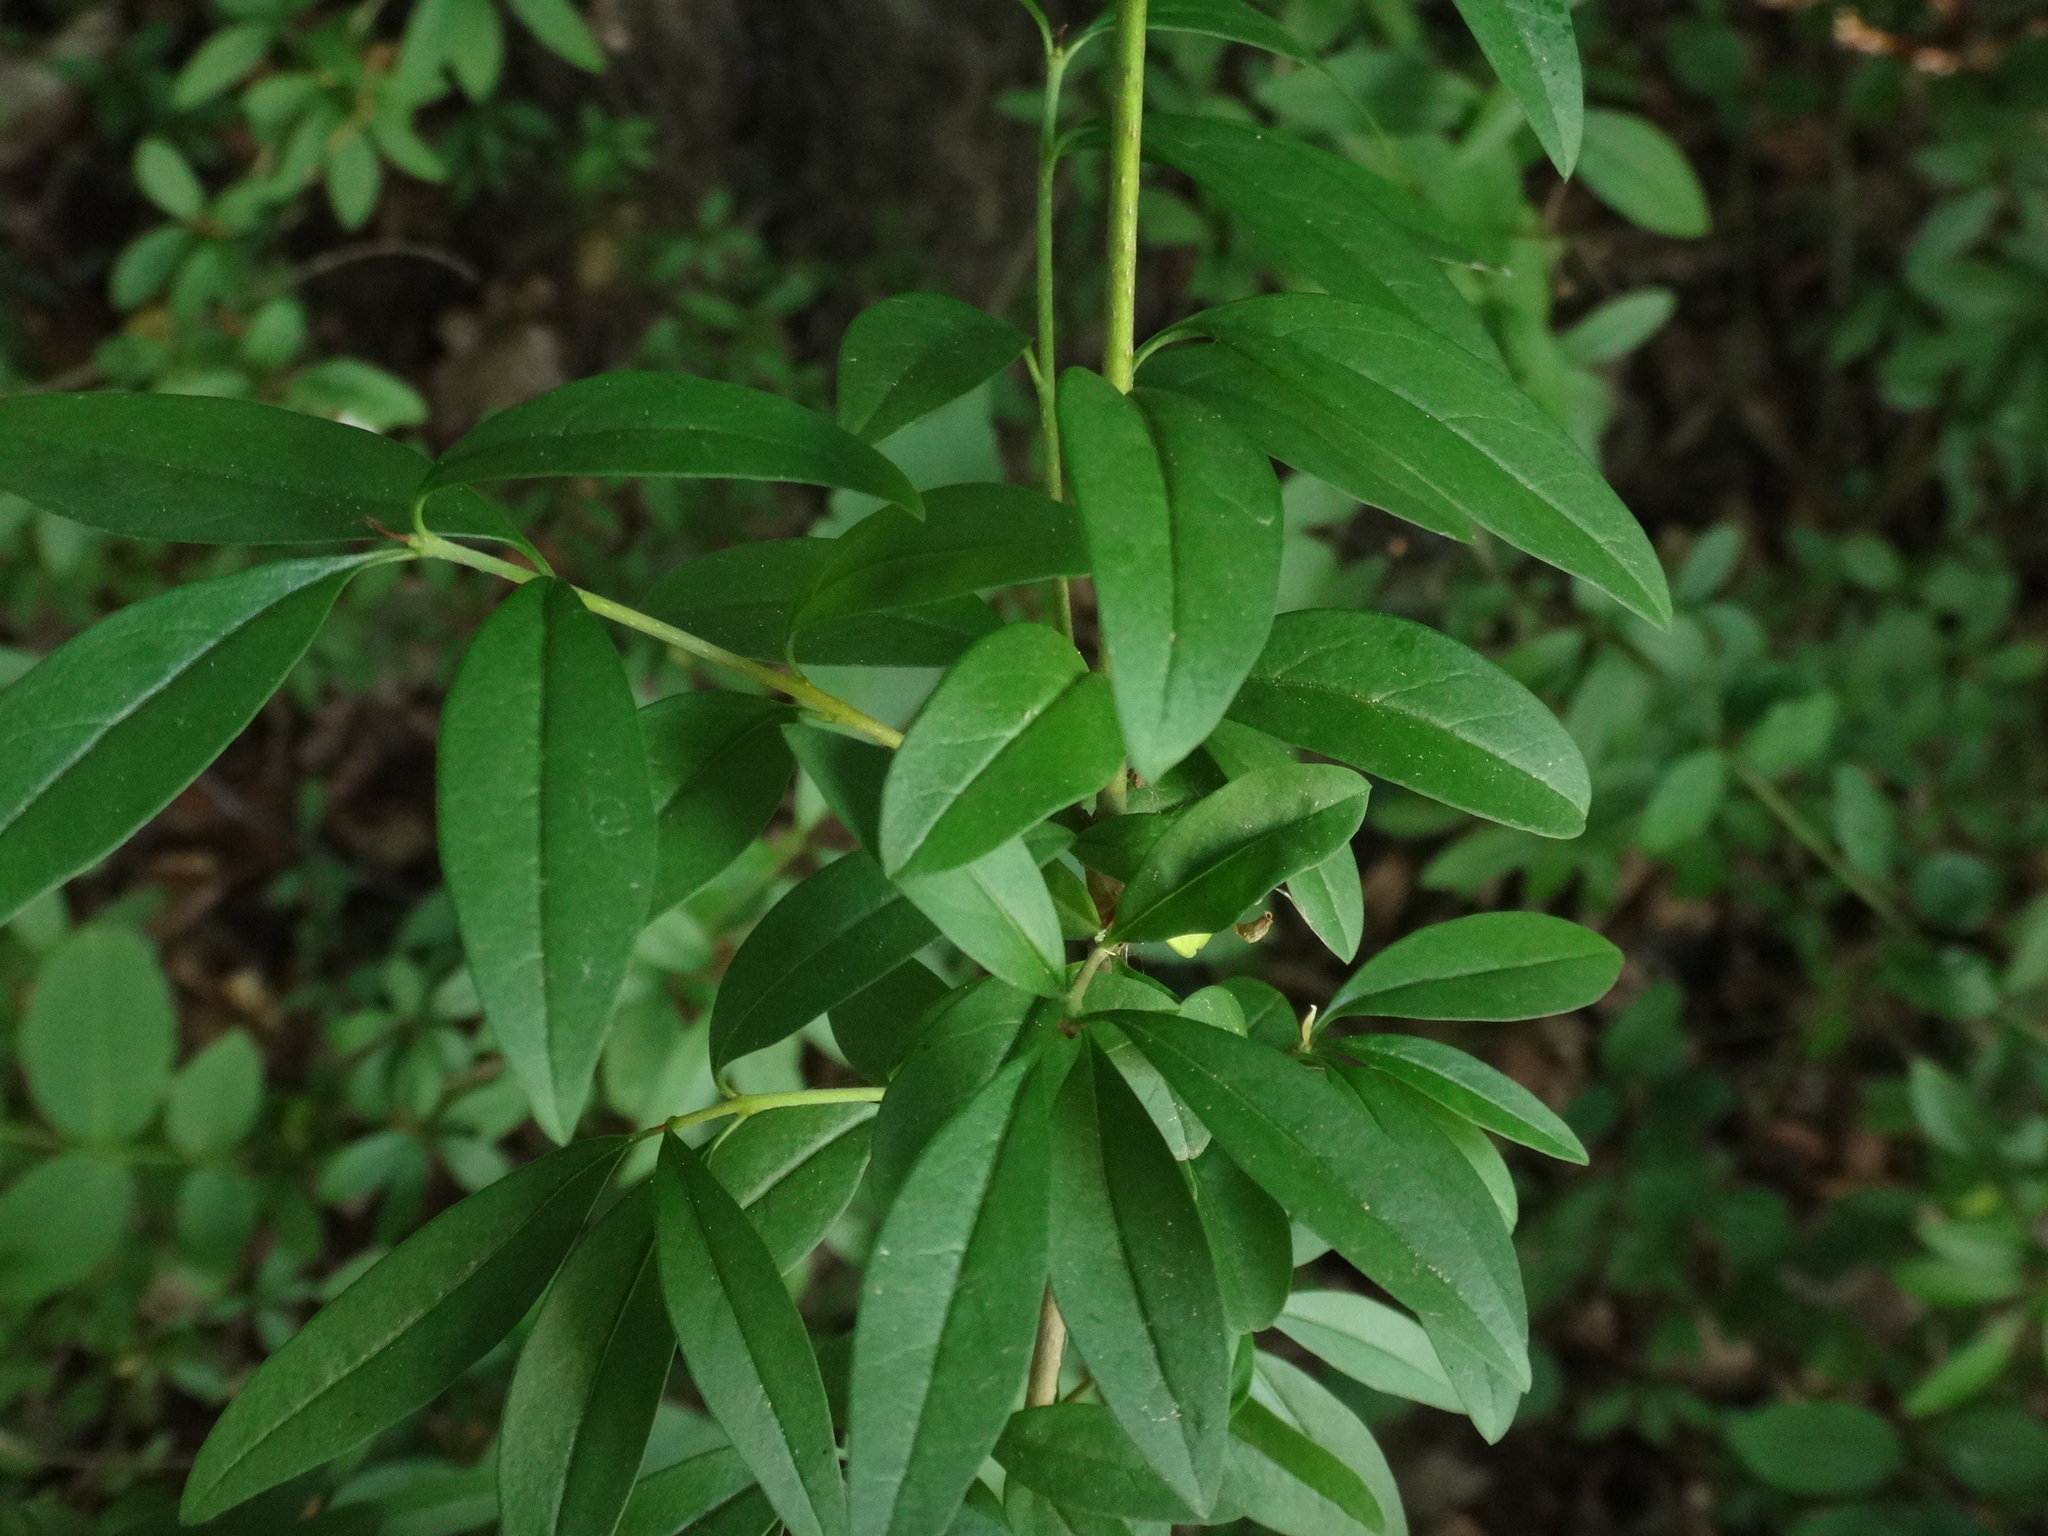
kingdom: Plantae
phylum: Tracheophyta
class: Magnoliopsida
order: Lamiales
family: Oleaceae
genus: Ligustrum
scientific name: Ligustrum vulgare
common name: Wild privet
